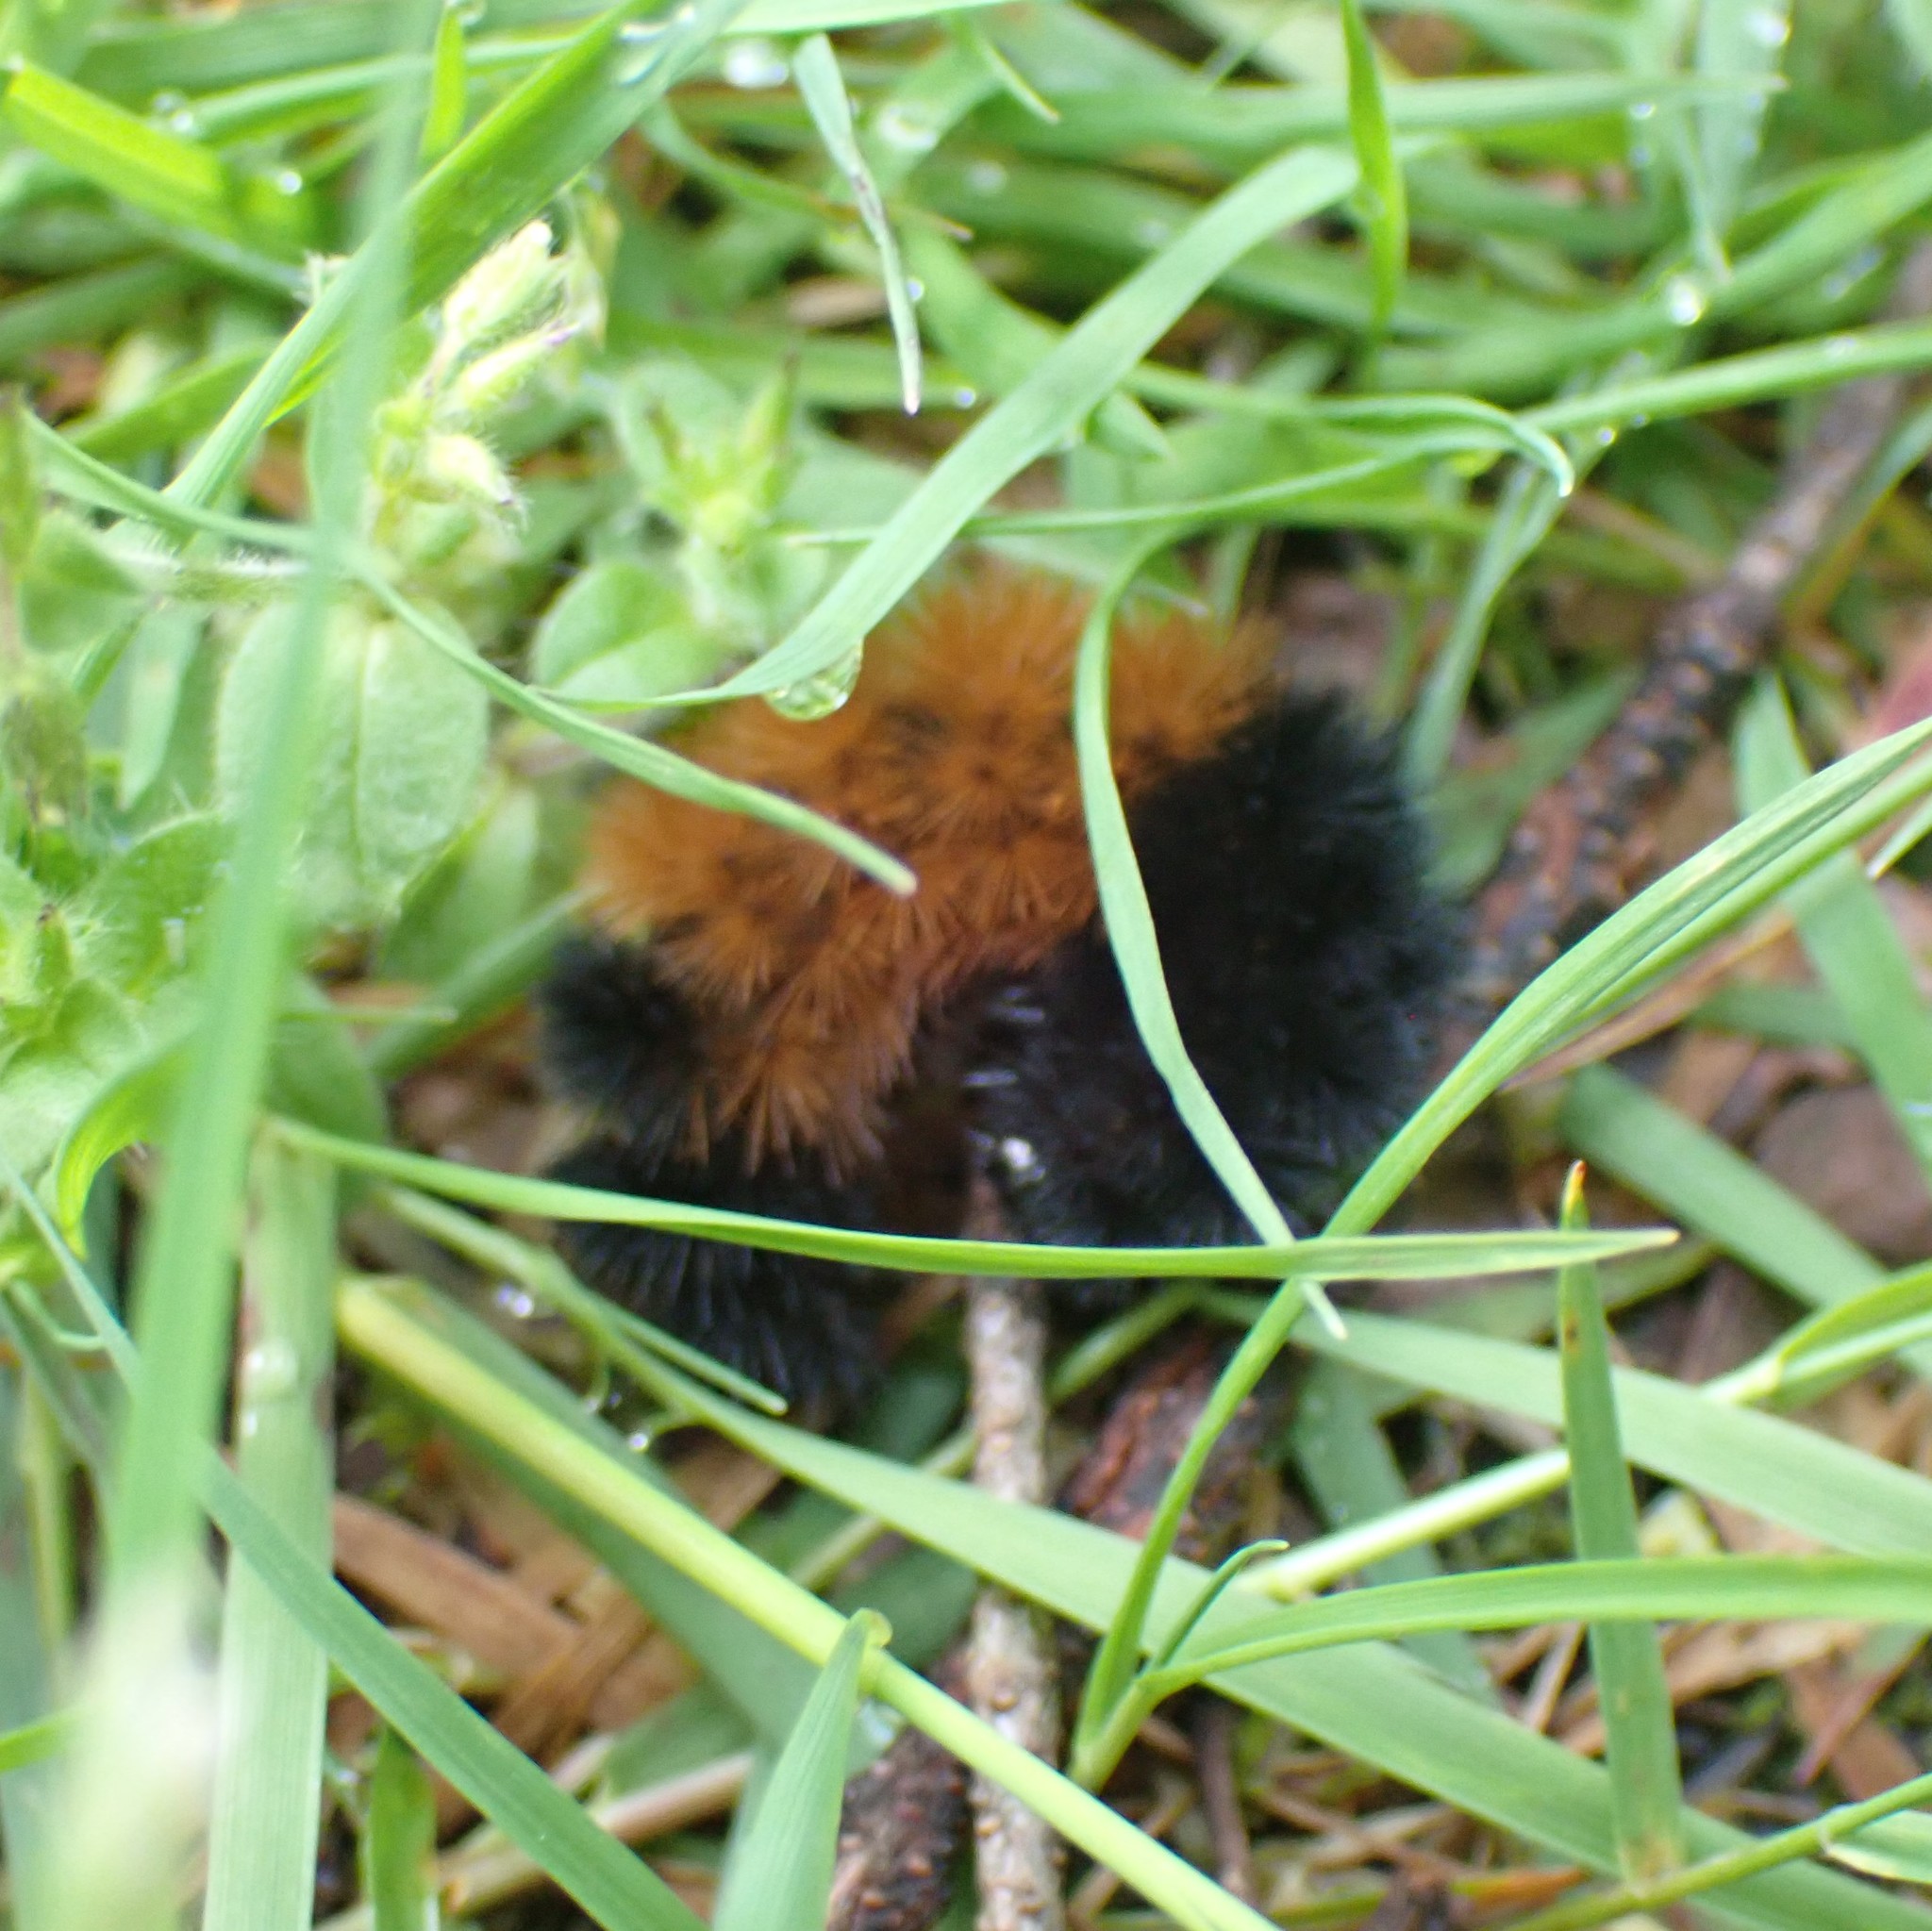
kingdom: Animalia
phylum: Arthropoda
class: Insecta
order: Lepidoptera
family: Erebidae
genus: Pyrrharctia
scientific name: Pyrrharctia isabella
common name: Isabella tiger moth
